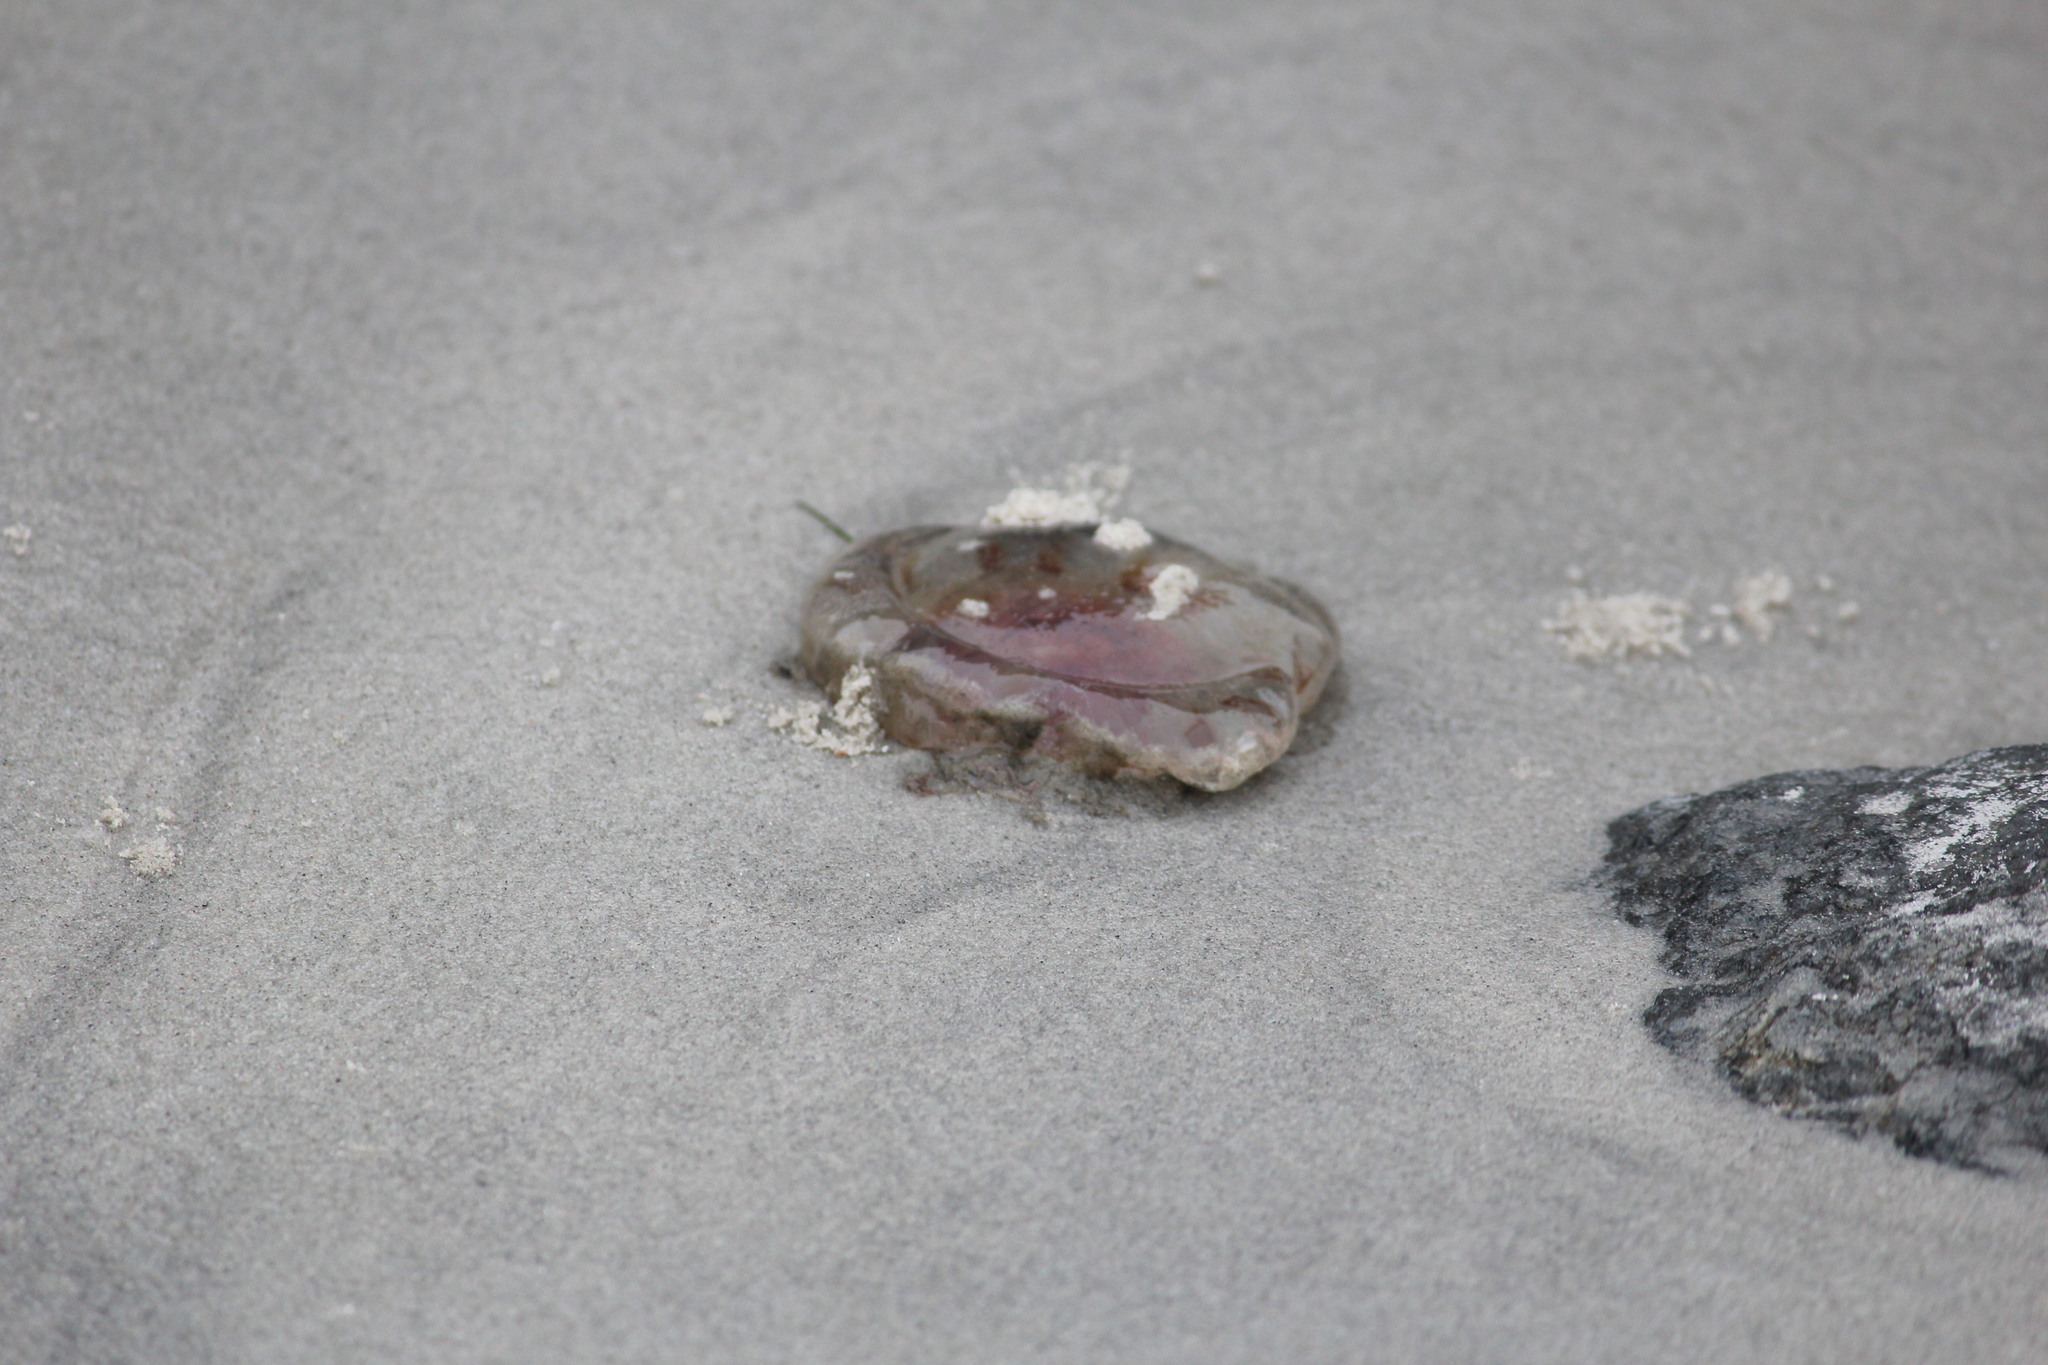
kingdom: Animalia
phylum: Cnidaria
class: Scyphozoa
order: Semaeostomeae
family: Pelagiidae
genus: Chrysaora
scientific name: Chrysaora quinquecirrha
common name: Atlantic sea nettle
